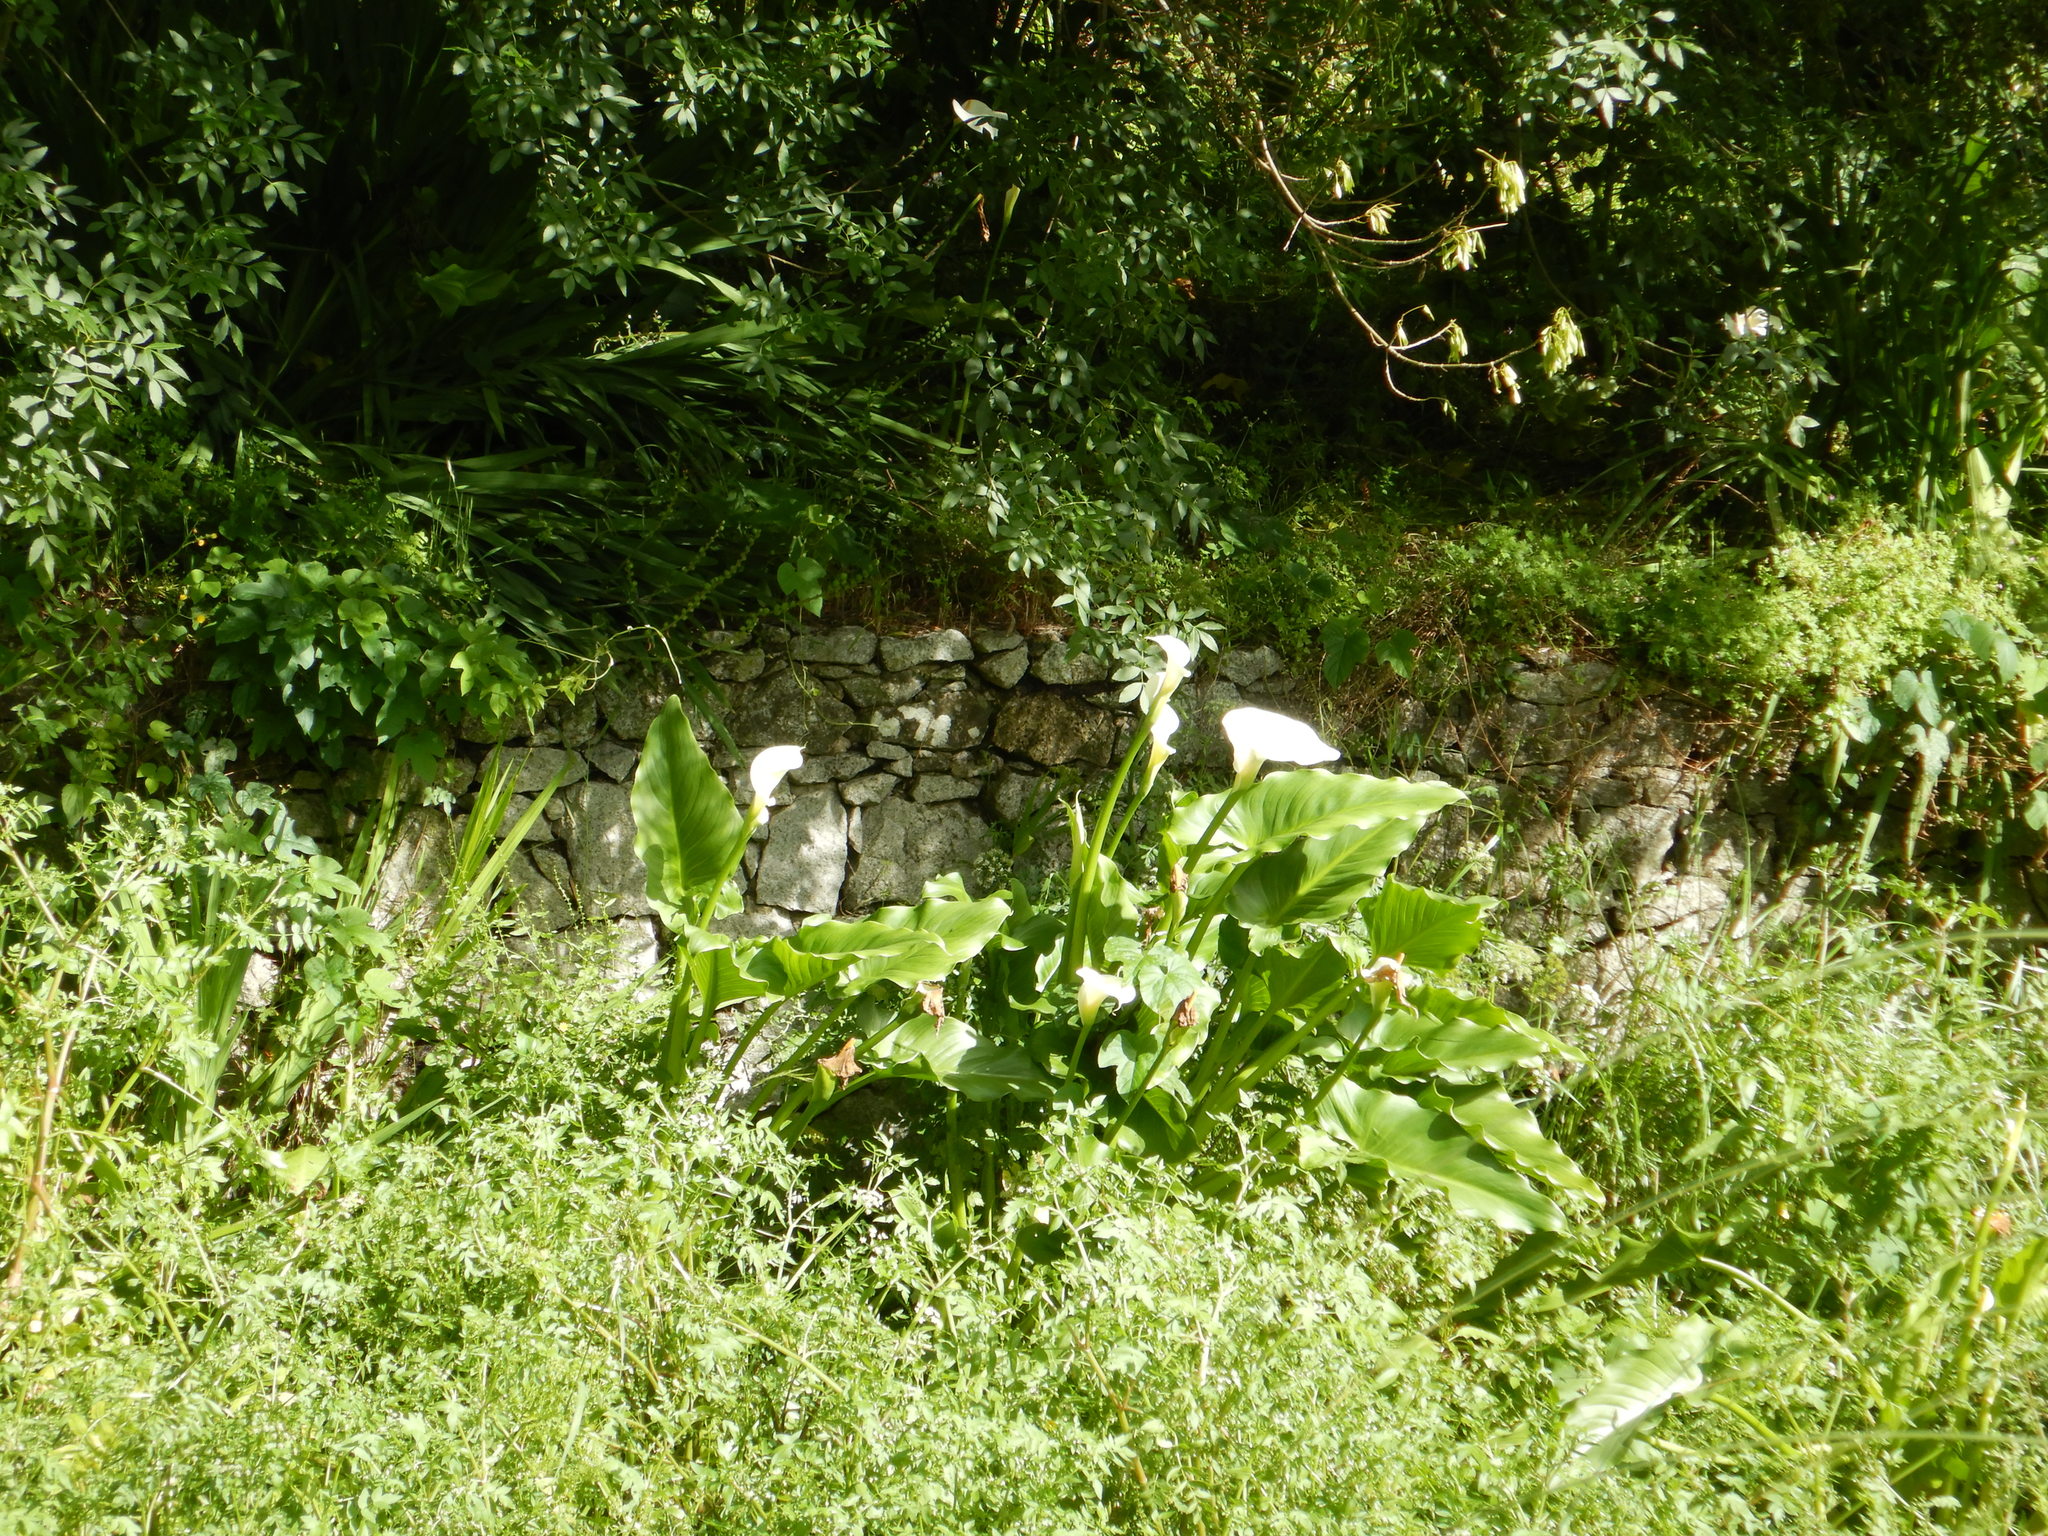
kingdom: Plantae
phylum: Tracheophyta
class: Liliopsida
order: Alismatales
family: Araceae
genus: Zantedeschia
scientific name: Zantedeschia aethiopica
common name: Altar-lily
